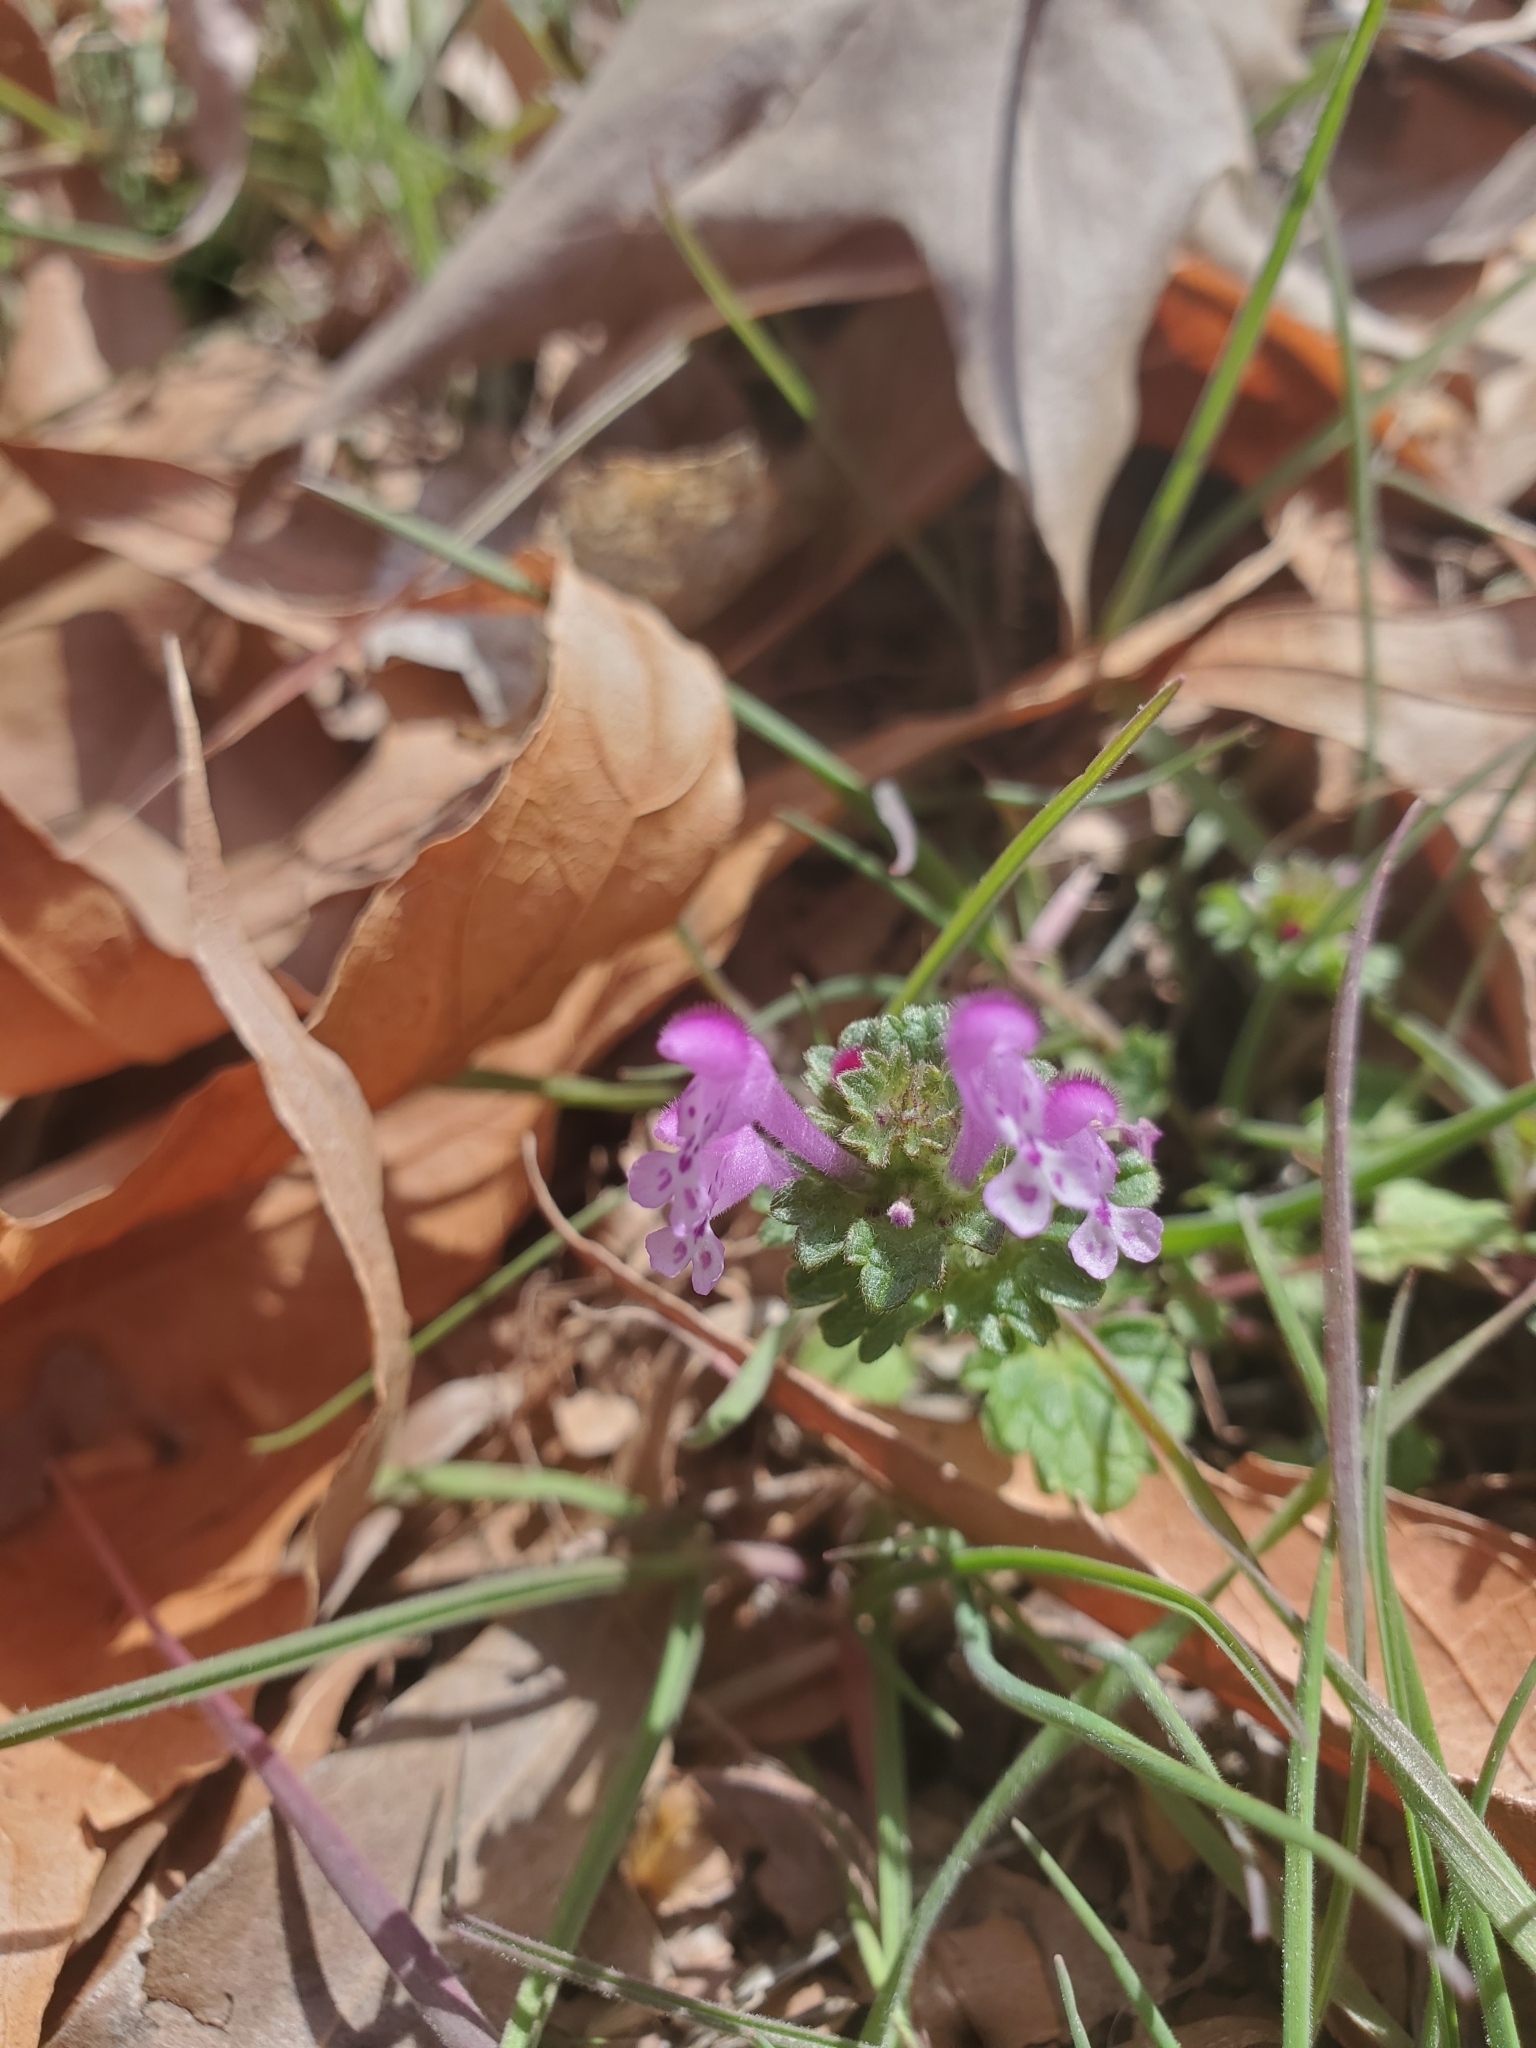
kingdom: Plantae
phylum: Tracheophyta
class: Magnoliopsida
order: Lamiales
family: Lamiaceae
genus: Glechoma
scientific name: Glechoma hederacea
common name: Ground ivy
